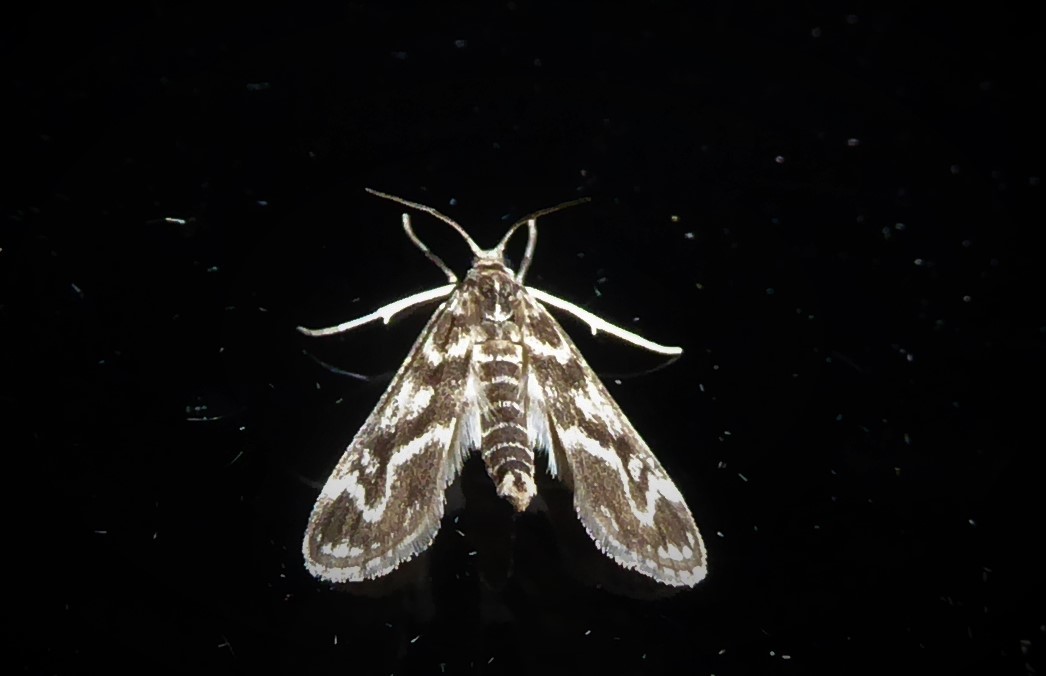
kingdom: Animalia
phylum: Arthropoda
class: Insecta
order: Lepidoptera
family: Crambidae
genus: Hygraula
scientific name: Hygraula nitens
